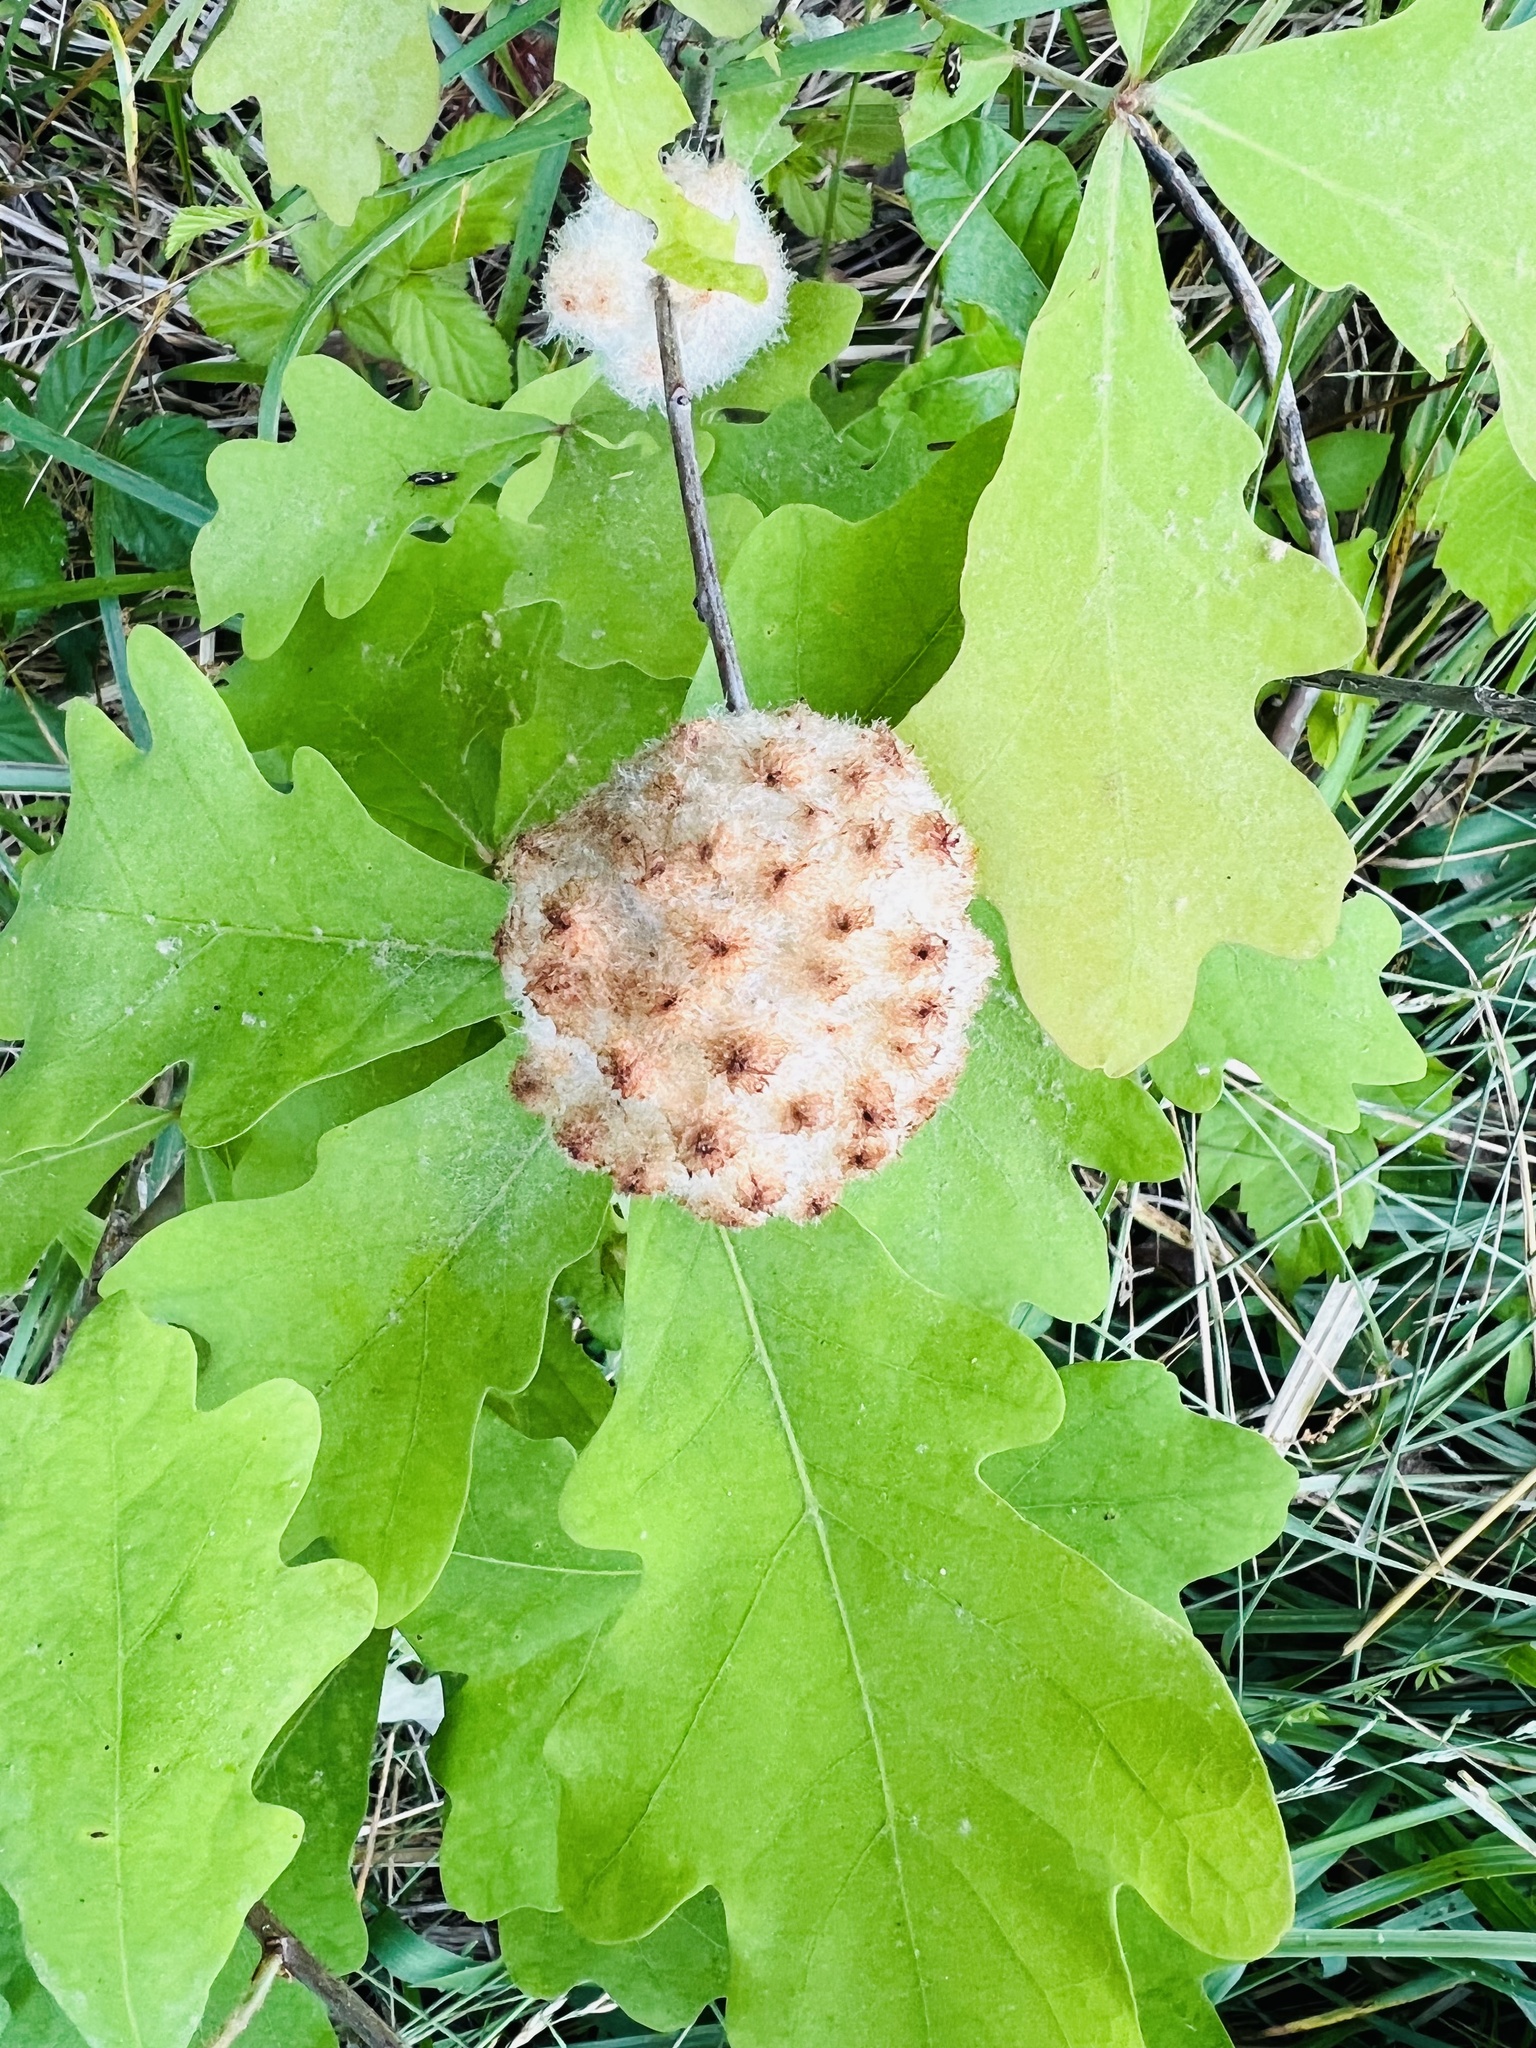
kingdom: Animalia
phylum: Arthropoda
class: Insecta
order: Hymenoptera
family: Cynipidae
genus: Callirhytis
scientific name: Callirhytis
